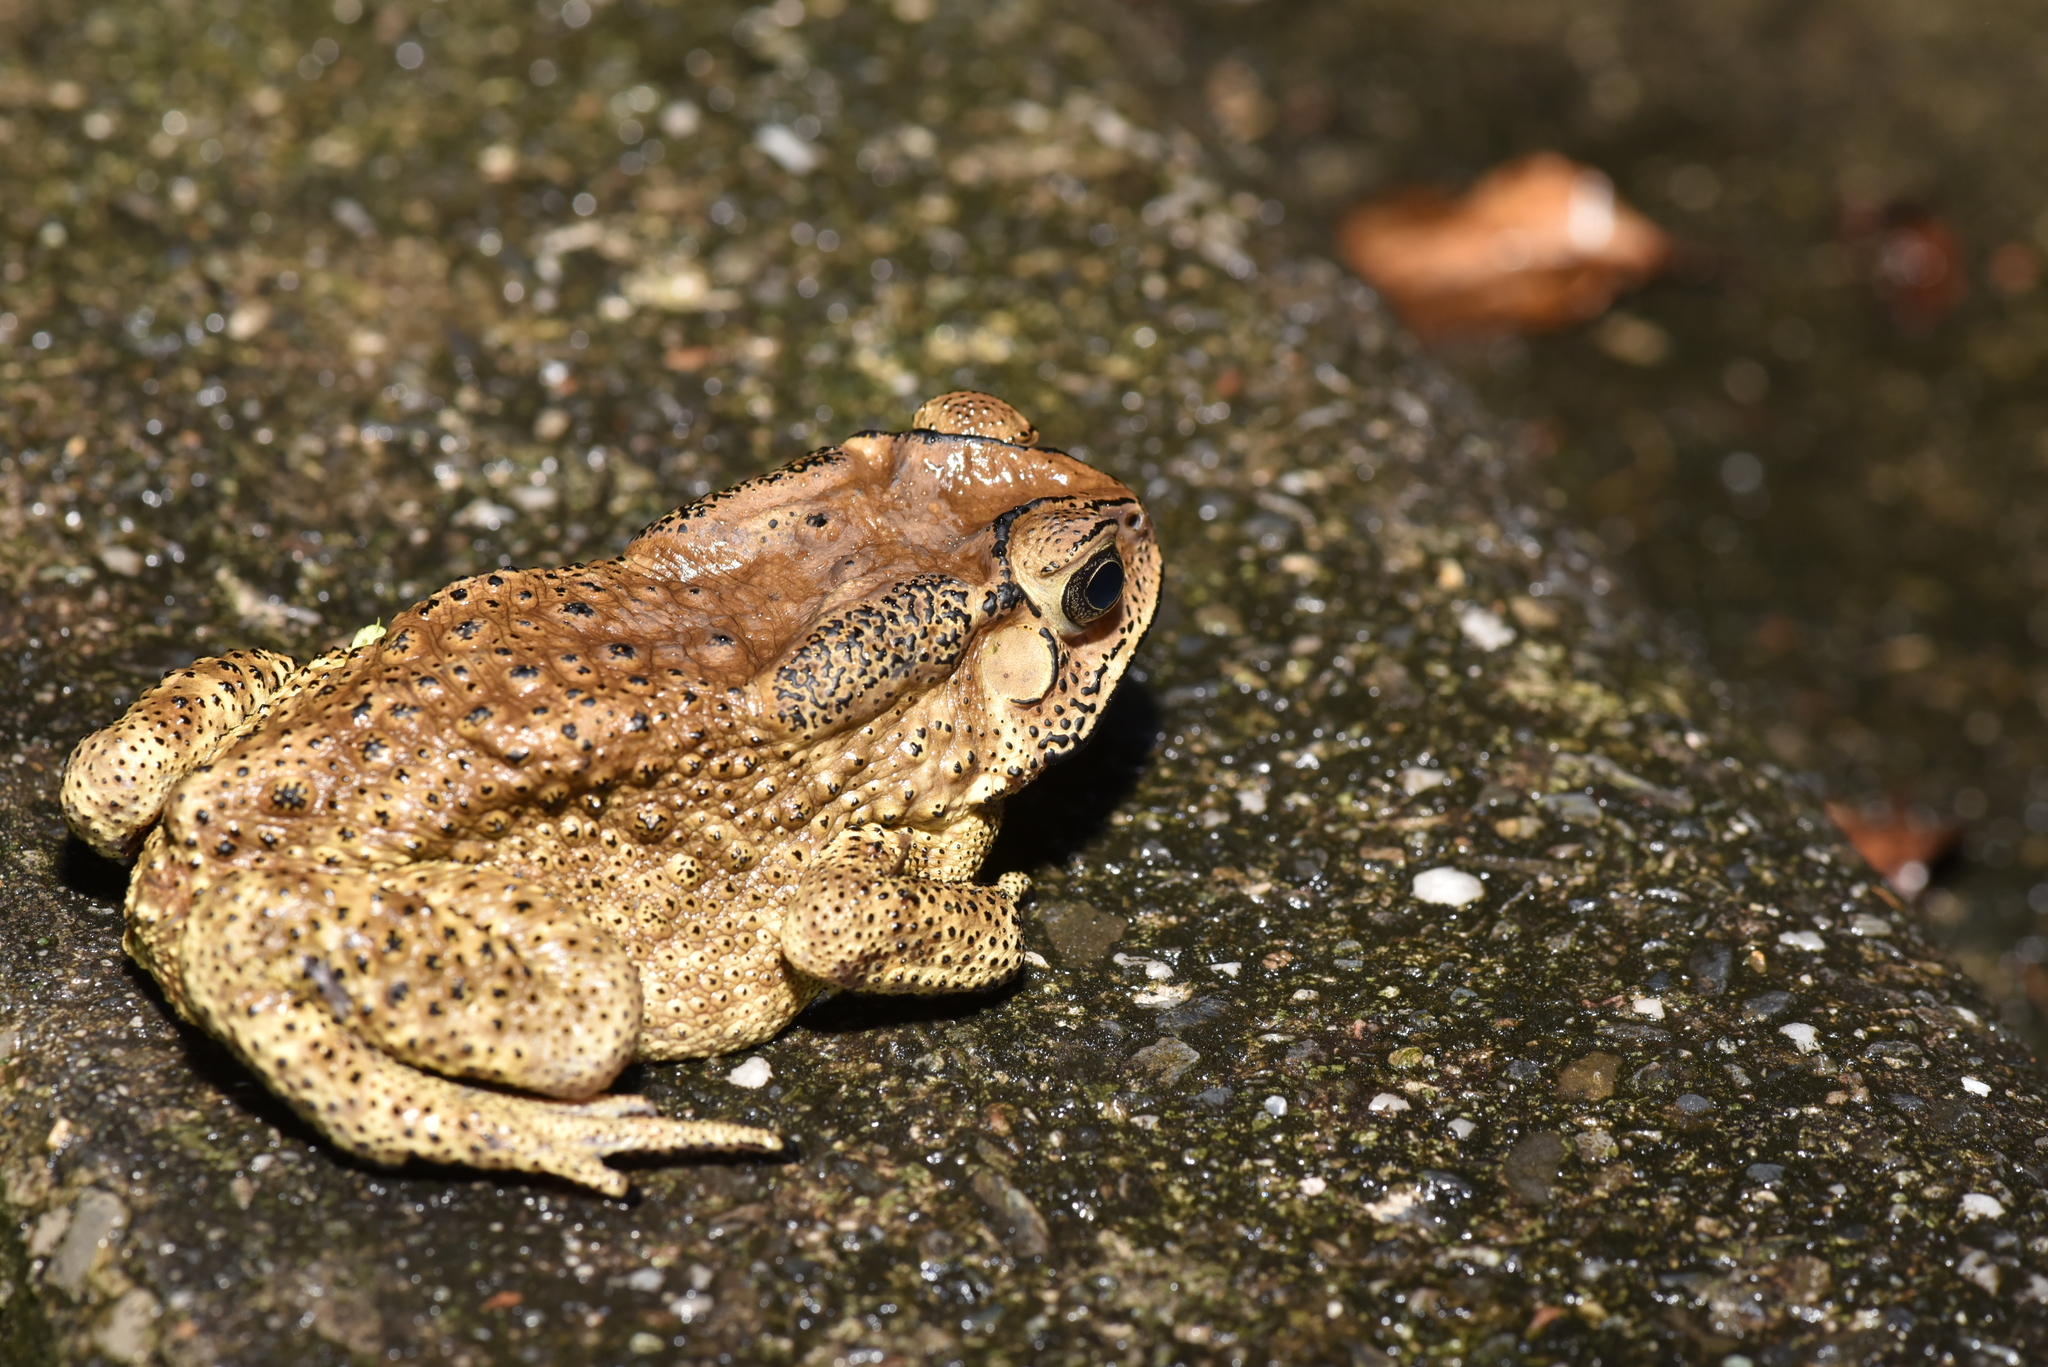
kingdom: Animalia
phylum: Chordata
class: Amphibia
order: Anura
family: Bufonidae
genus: Duttaphrynus
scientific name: Duttaphrynus melanostictus
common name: Common sunda toad
